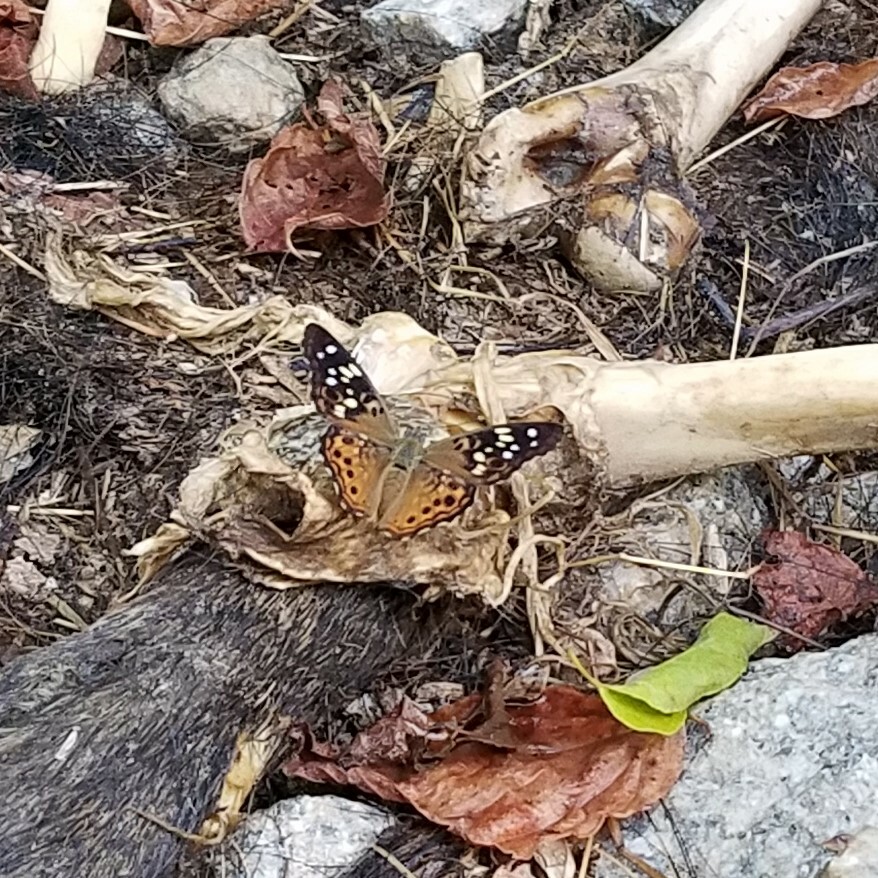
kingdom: Animalia
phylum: Arthropoda
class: Insecta
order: Lepidoptera
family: Nymphalidae
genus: Asterocampa
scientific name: Asterocampa celtis
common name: Hackberry emperor
